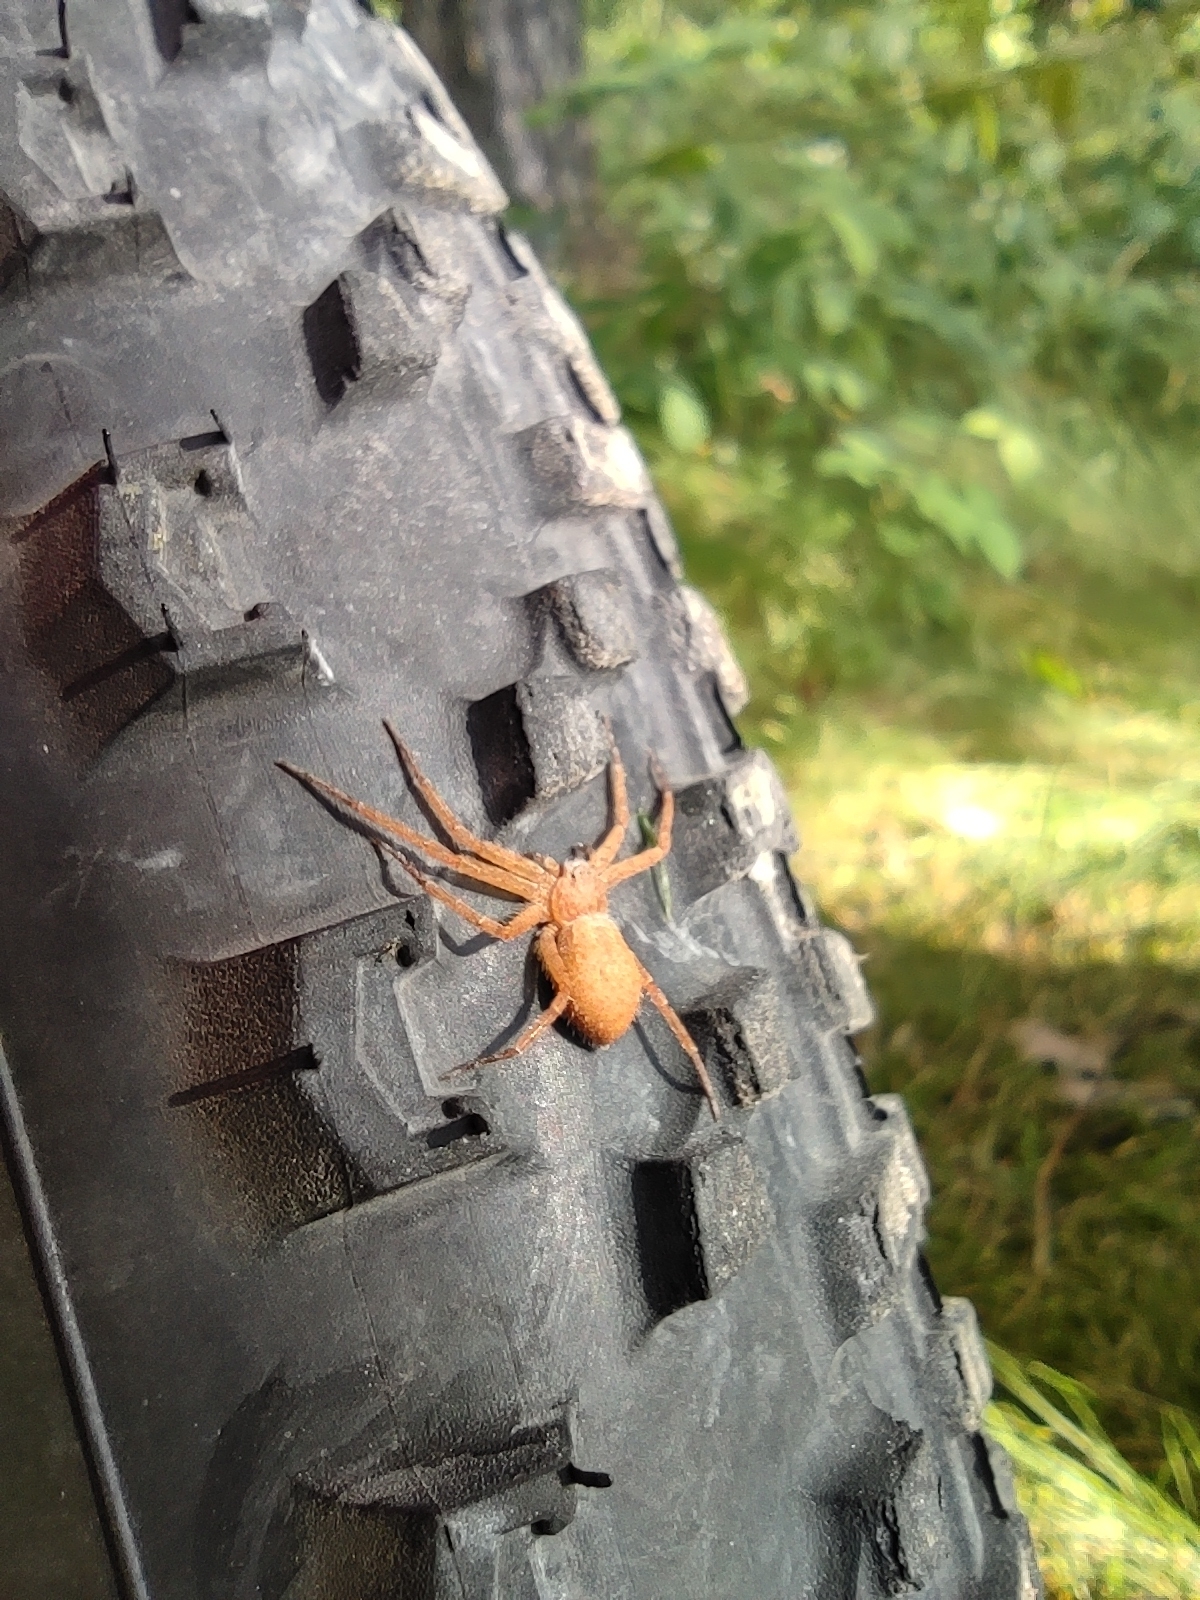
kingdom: Animalia
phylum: Arthropoda
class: Arachnida
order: Araneae
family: Philodromidae
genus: Philodromus
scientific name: Philodromus fuscomarginatus
